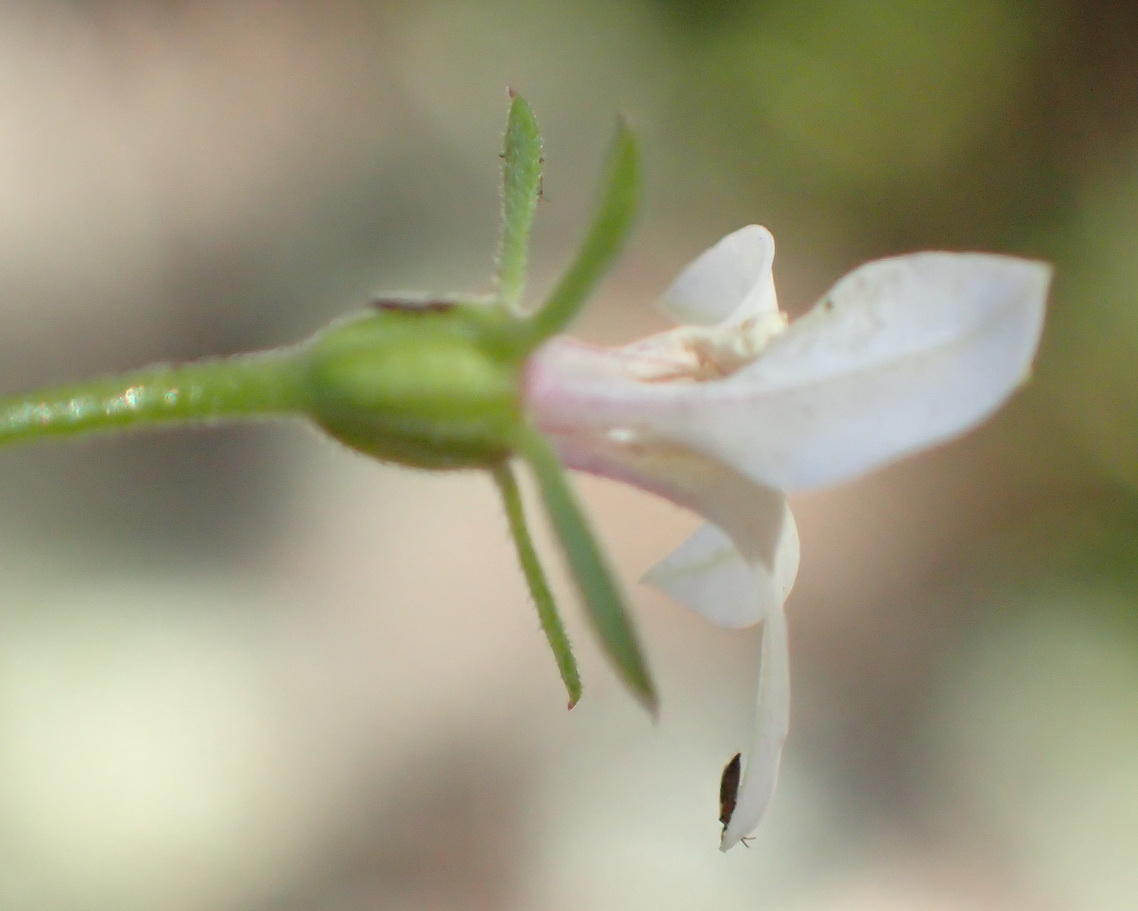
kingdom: Plantae
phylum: Tracheophyta
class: Magnoliopsida
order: Asterales
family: Campanulaceae
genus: Monopsis
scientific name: Monopsis alba
